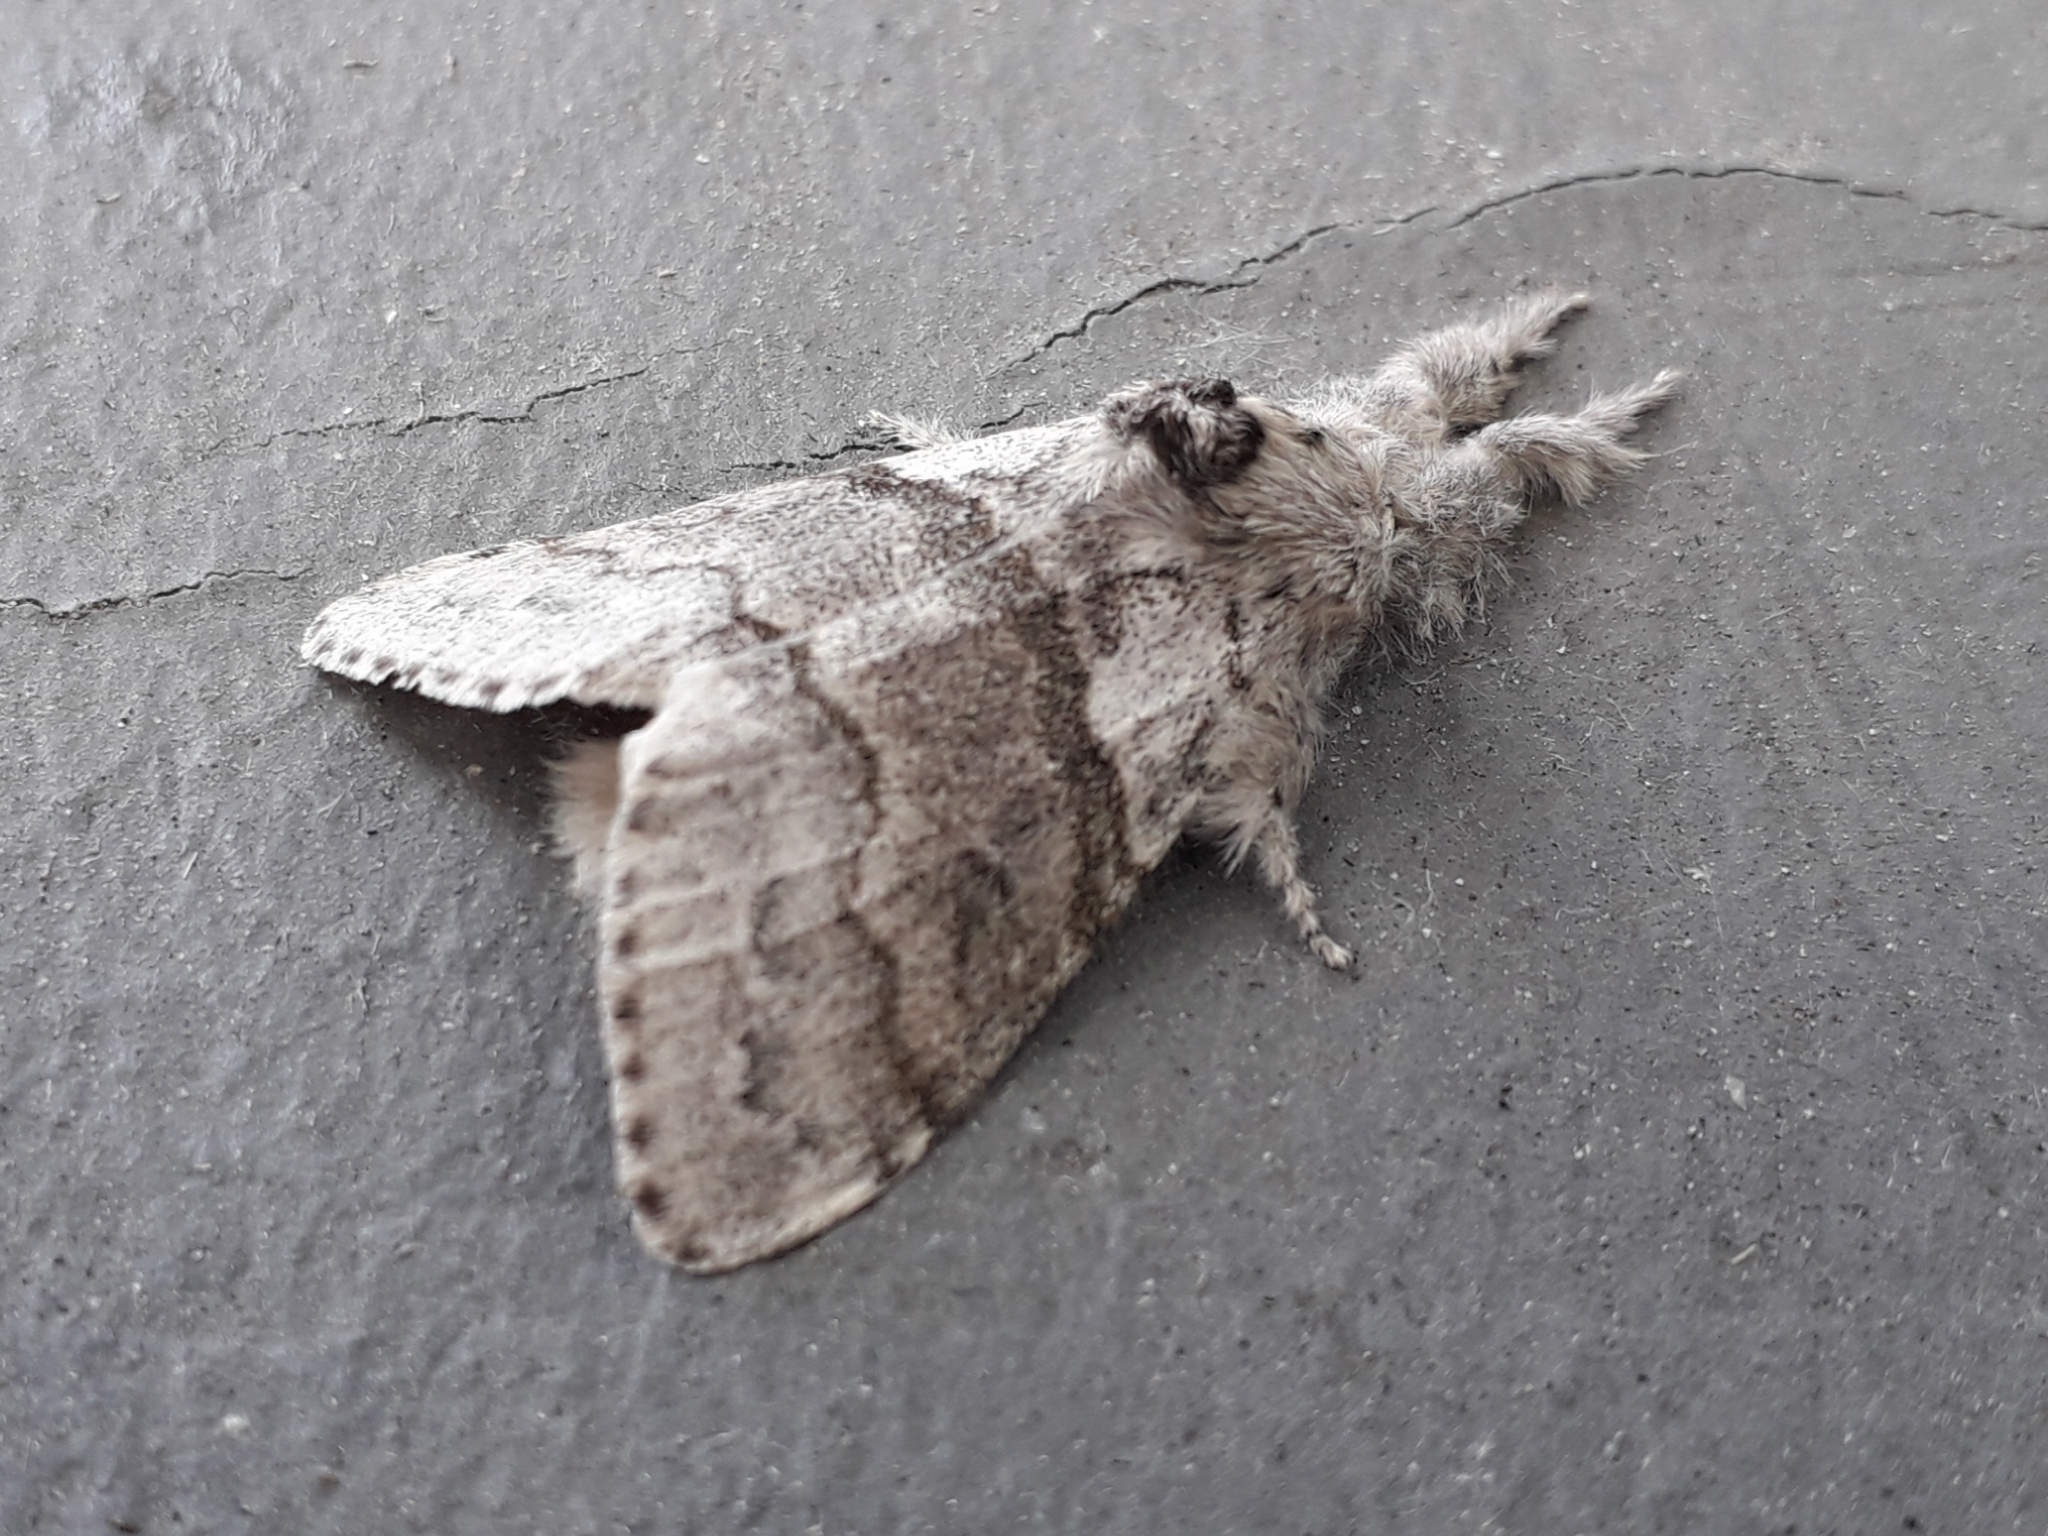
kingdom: Animalia
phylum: Arthropoda
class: Insecta
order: Lepidoptera
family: Erebidae
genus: Calliteara
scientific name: Calliteara pudibunda
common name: Pale tussock
